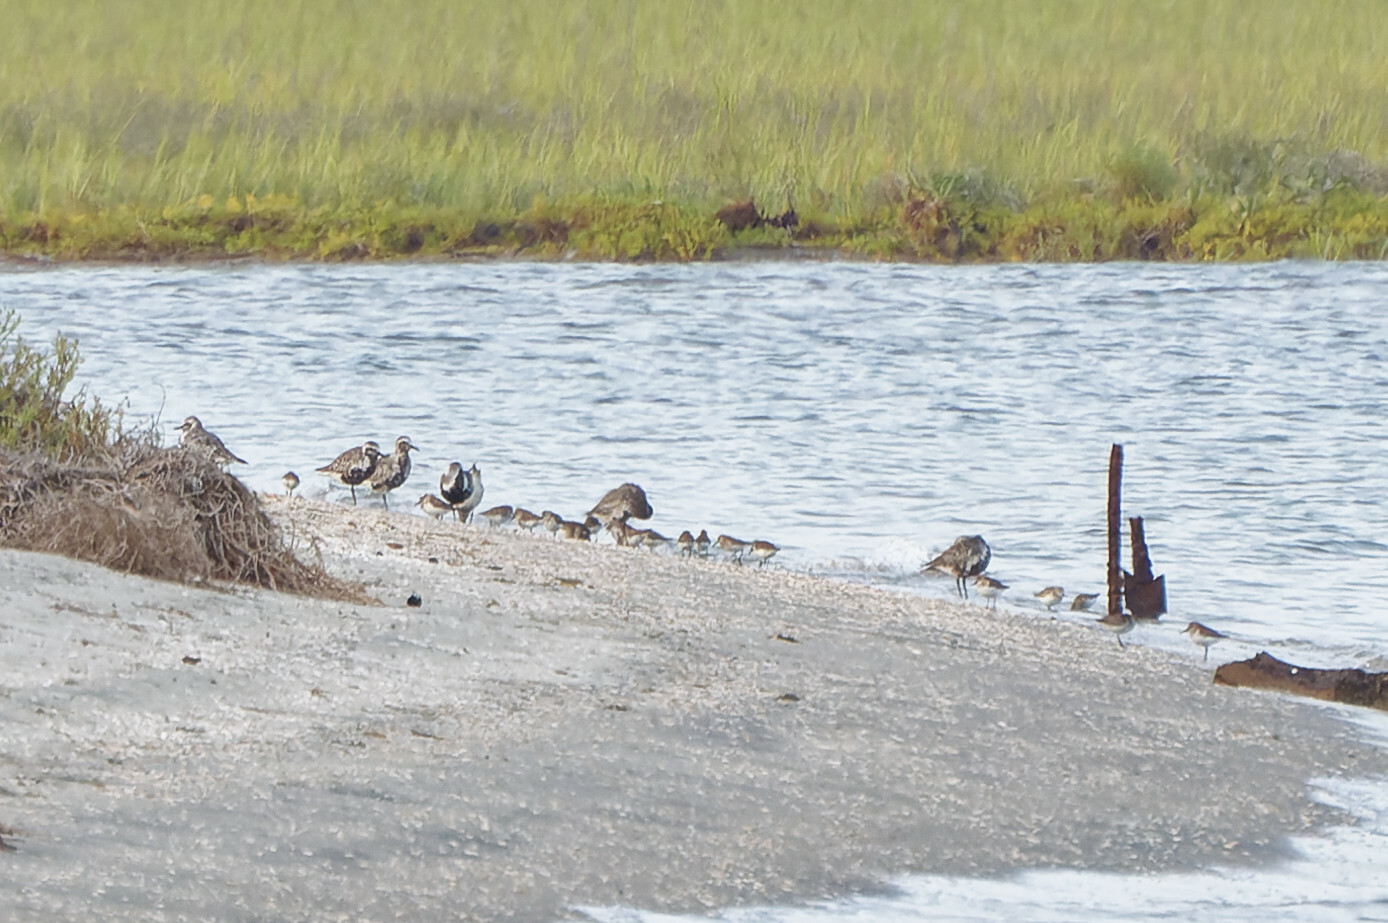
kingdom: Animalia
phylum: Chordata
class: Aves
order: Charadriiformes
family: Charadriidae
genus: Pluvialis
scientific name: Pluvialis squatarola
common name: Grey plover
